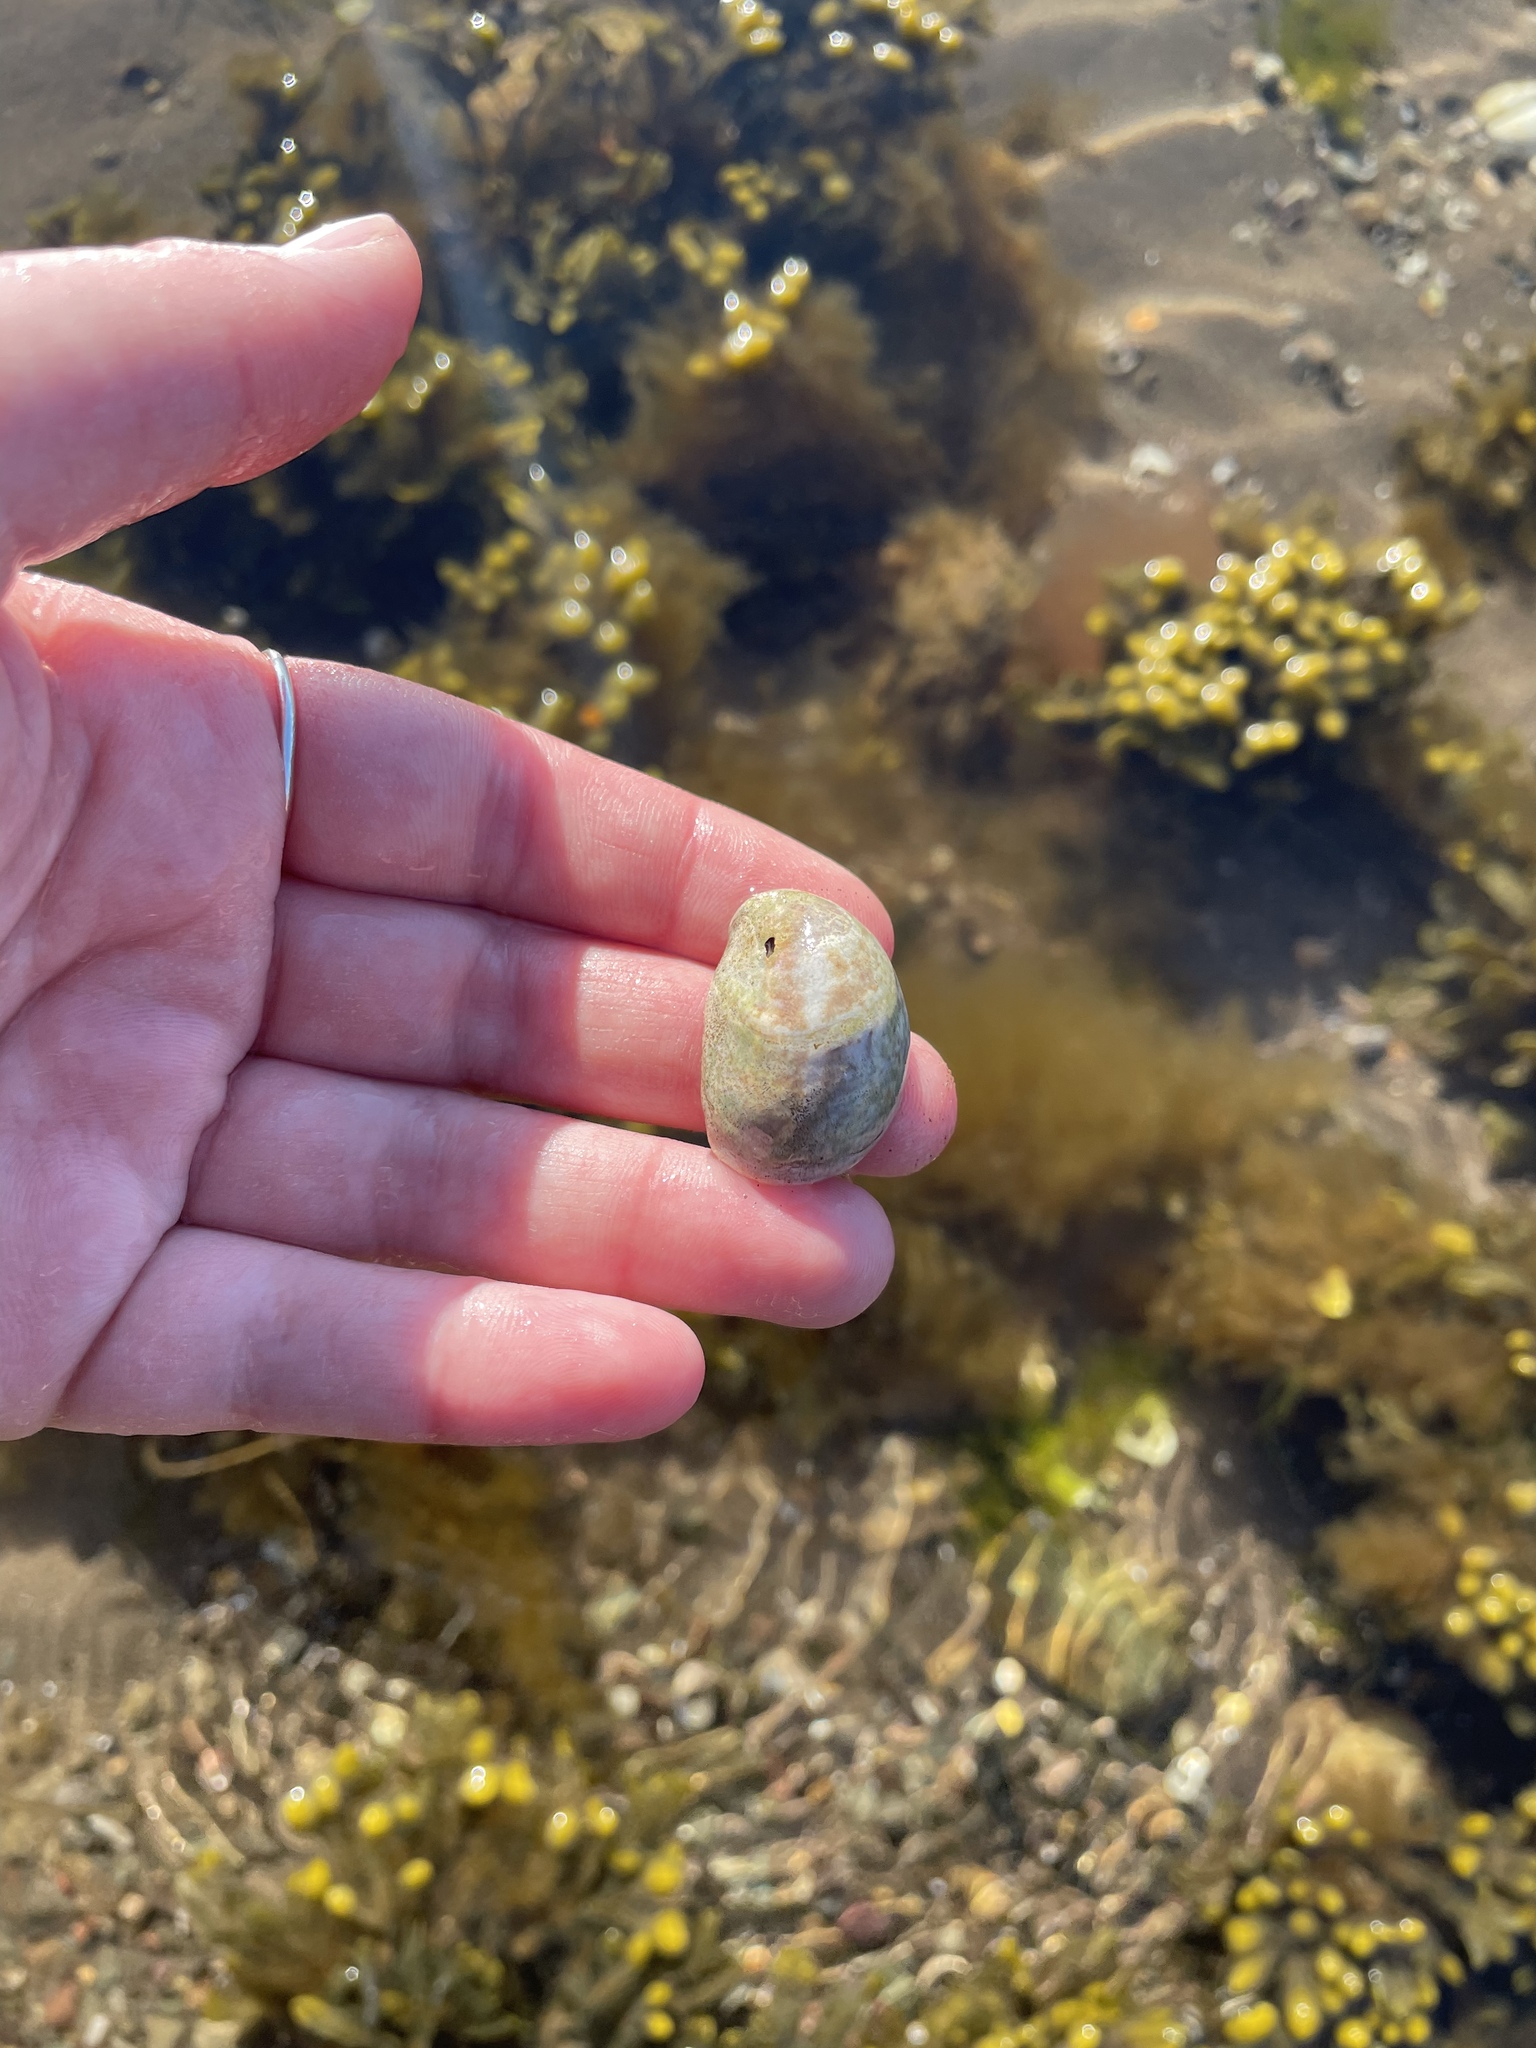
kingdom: Animalia
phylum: Mollusca
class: Gastropoda
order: Littorinimorpha
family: Calyptraeidae
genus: Crepidula
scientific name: Crepidula fornicata
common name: Slipper limpet
